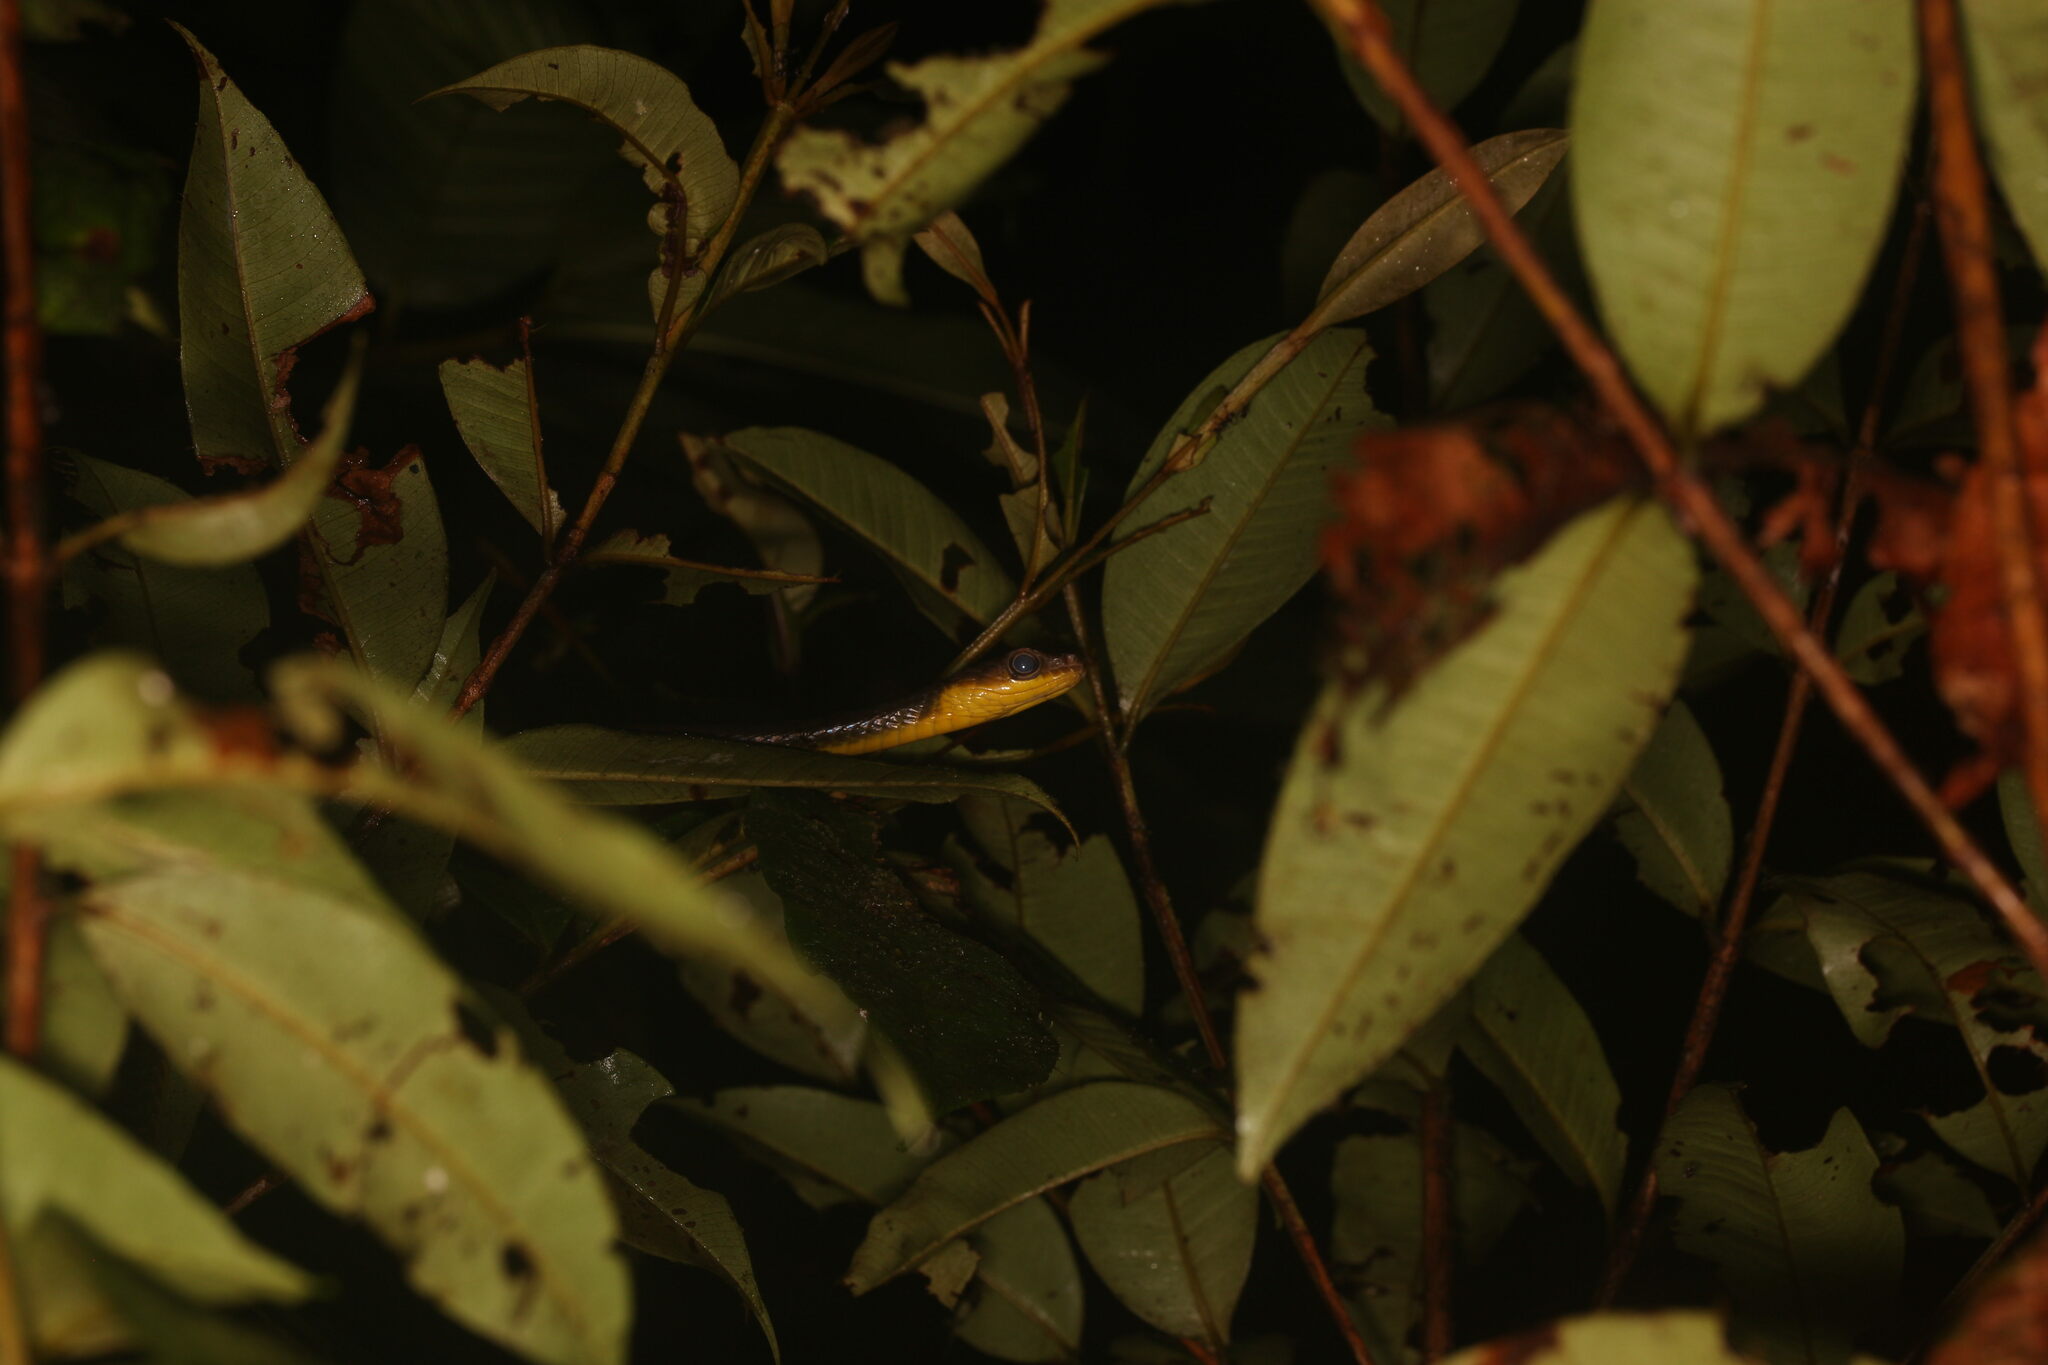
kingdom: Animalia
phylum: Chordata
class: Squamata
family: Colubridae
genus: Chironius
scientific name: Chironius multiventris
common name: South american sipo
